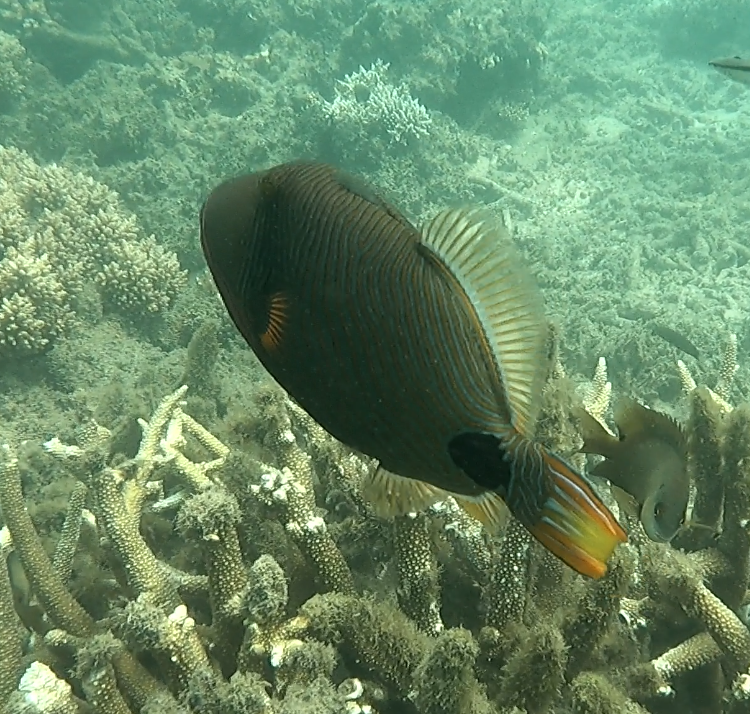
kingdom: Animalia
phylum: Chordata
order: Tetraodontiformes
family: Balistidae
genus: Balistapus
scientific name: Balistapus undulatus
